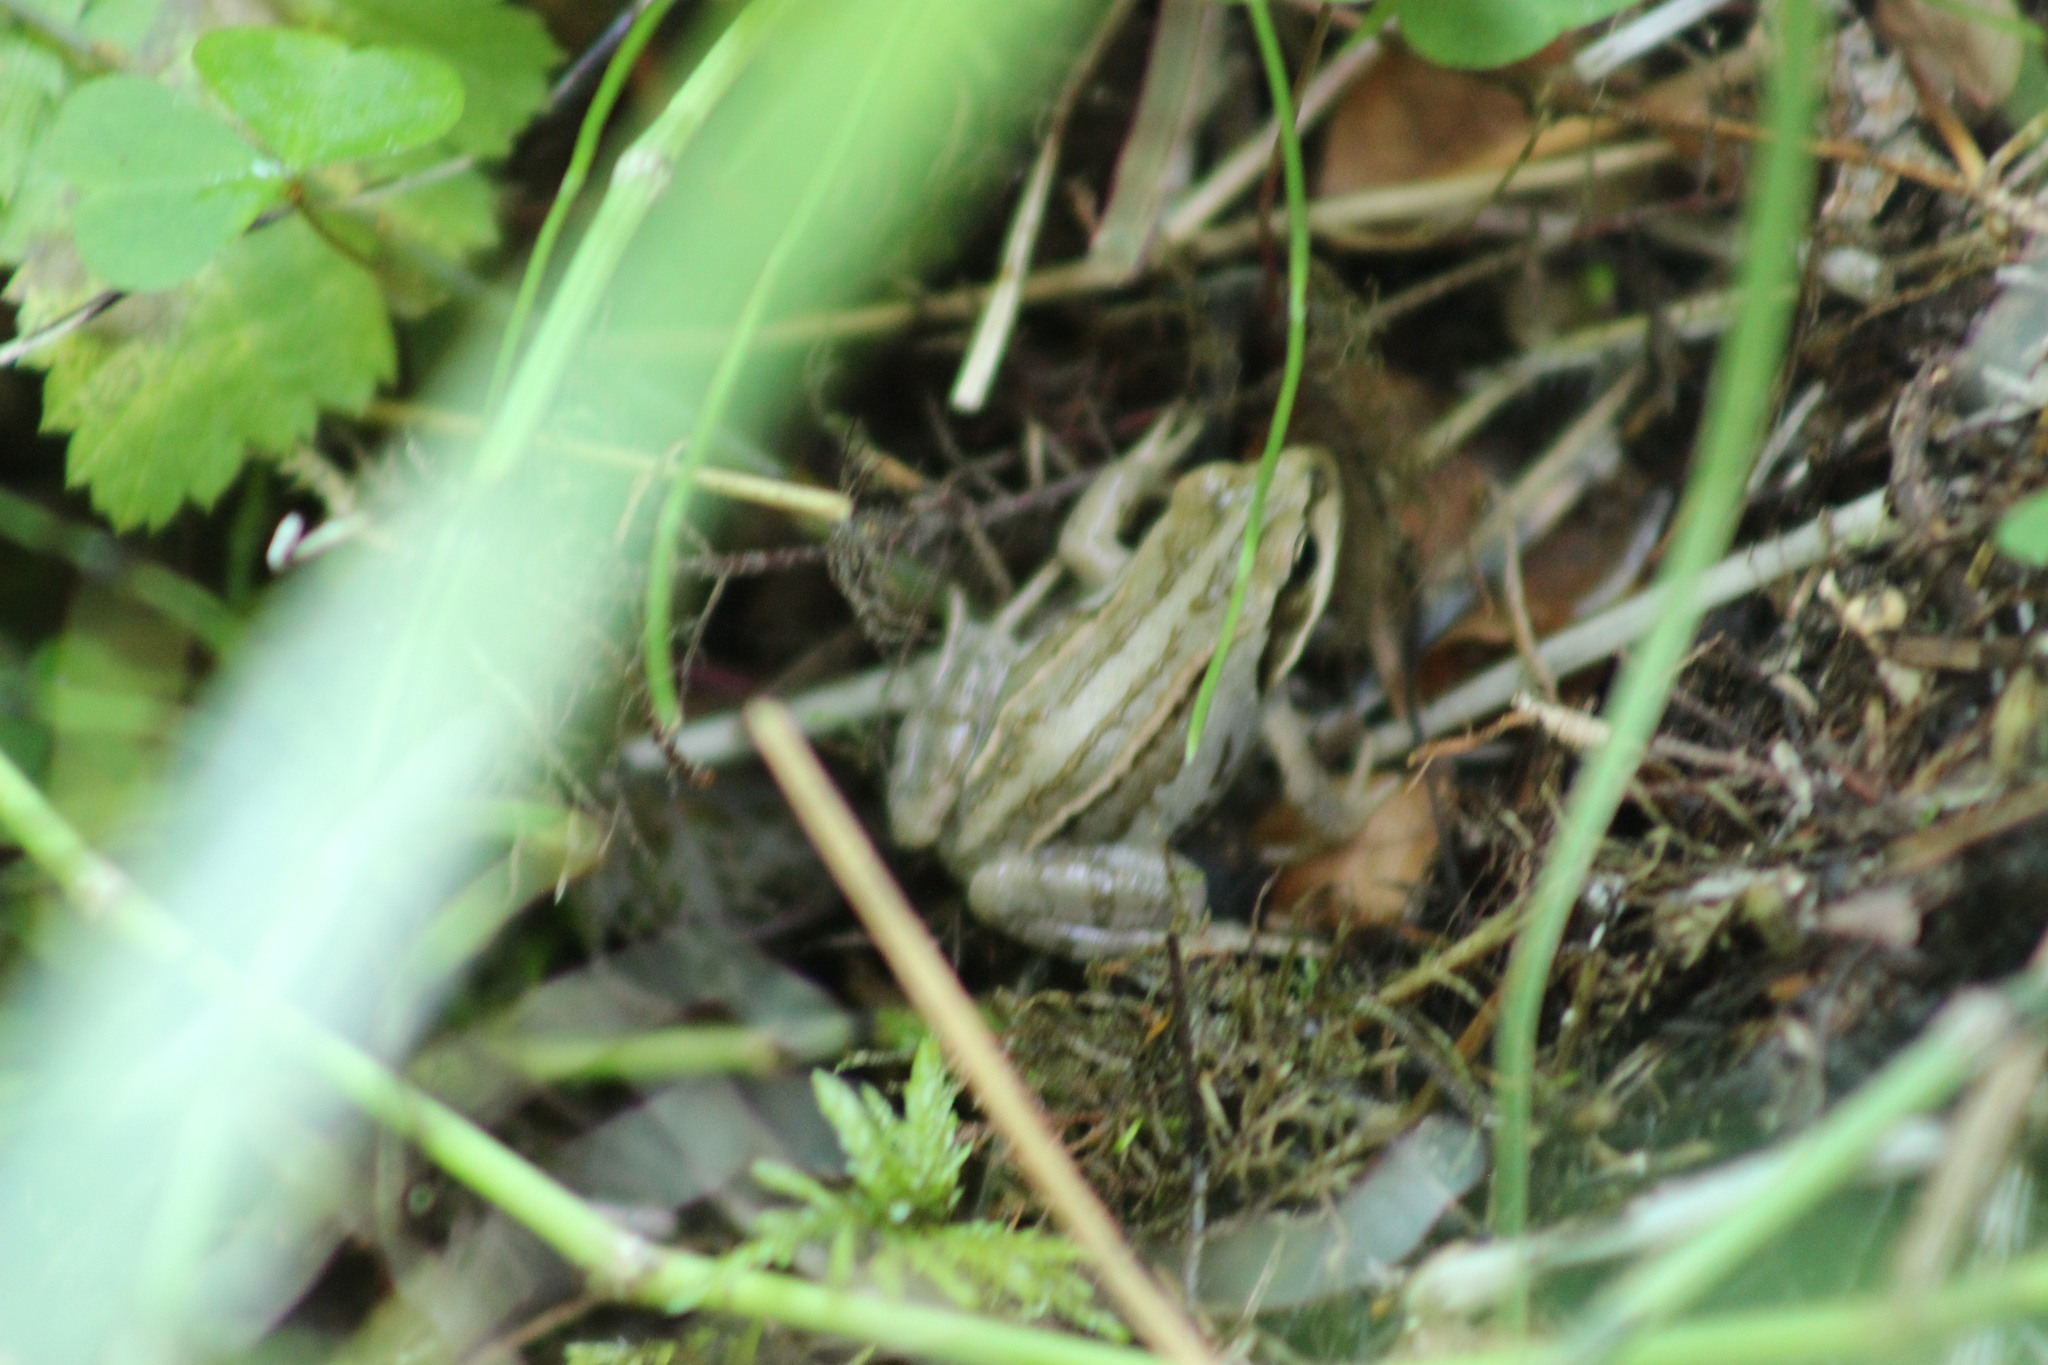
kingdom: Animalia
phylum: Chordata
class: Amphibia
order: Anura
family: Ranidae
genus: Rana
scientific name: Rana arvalis
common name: Moor frog
